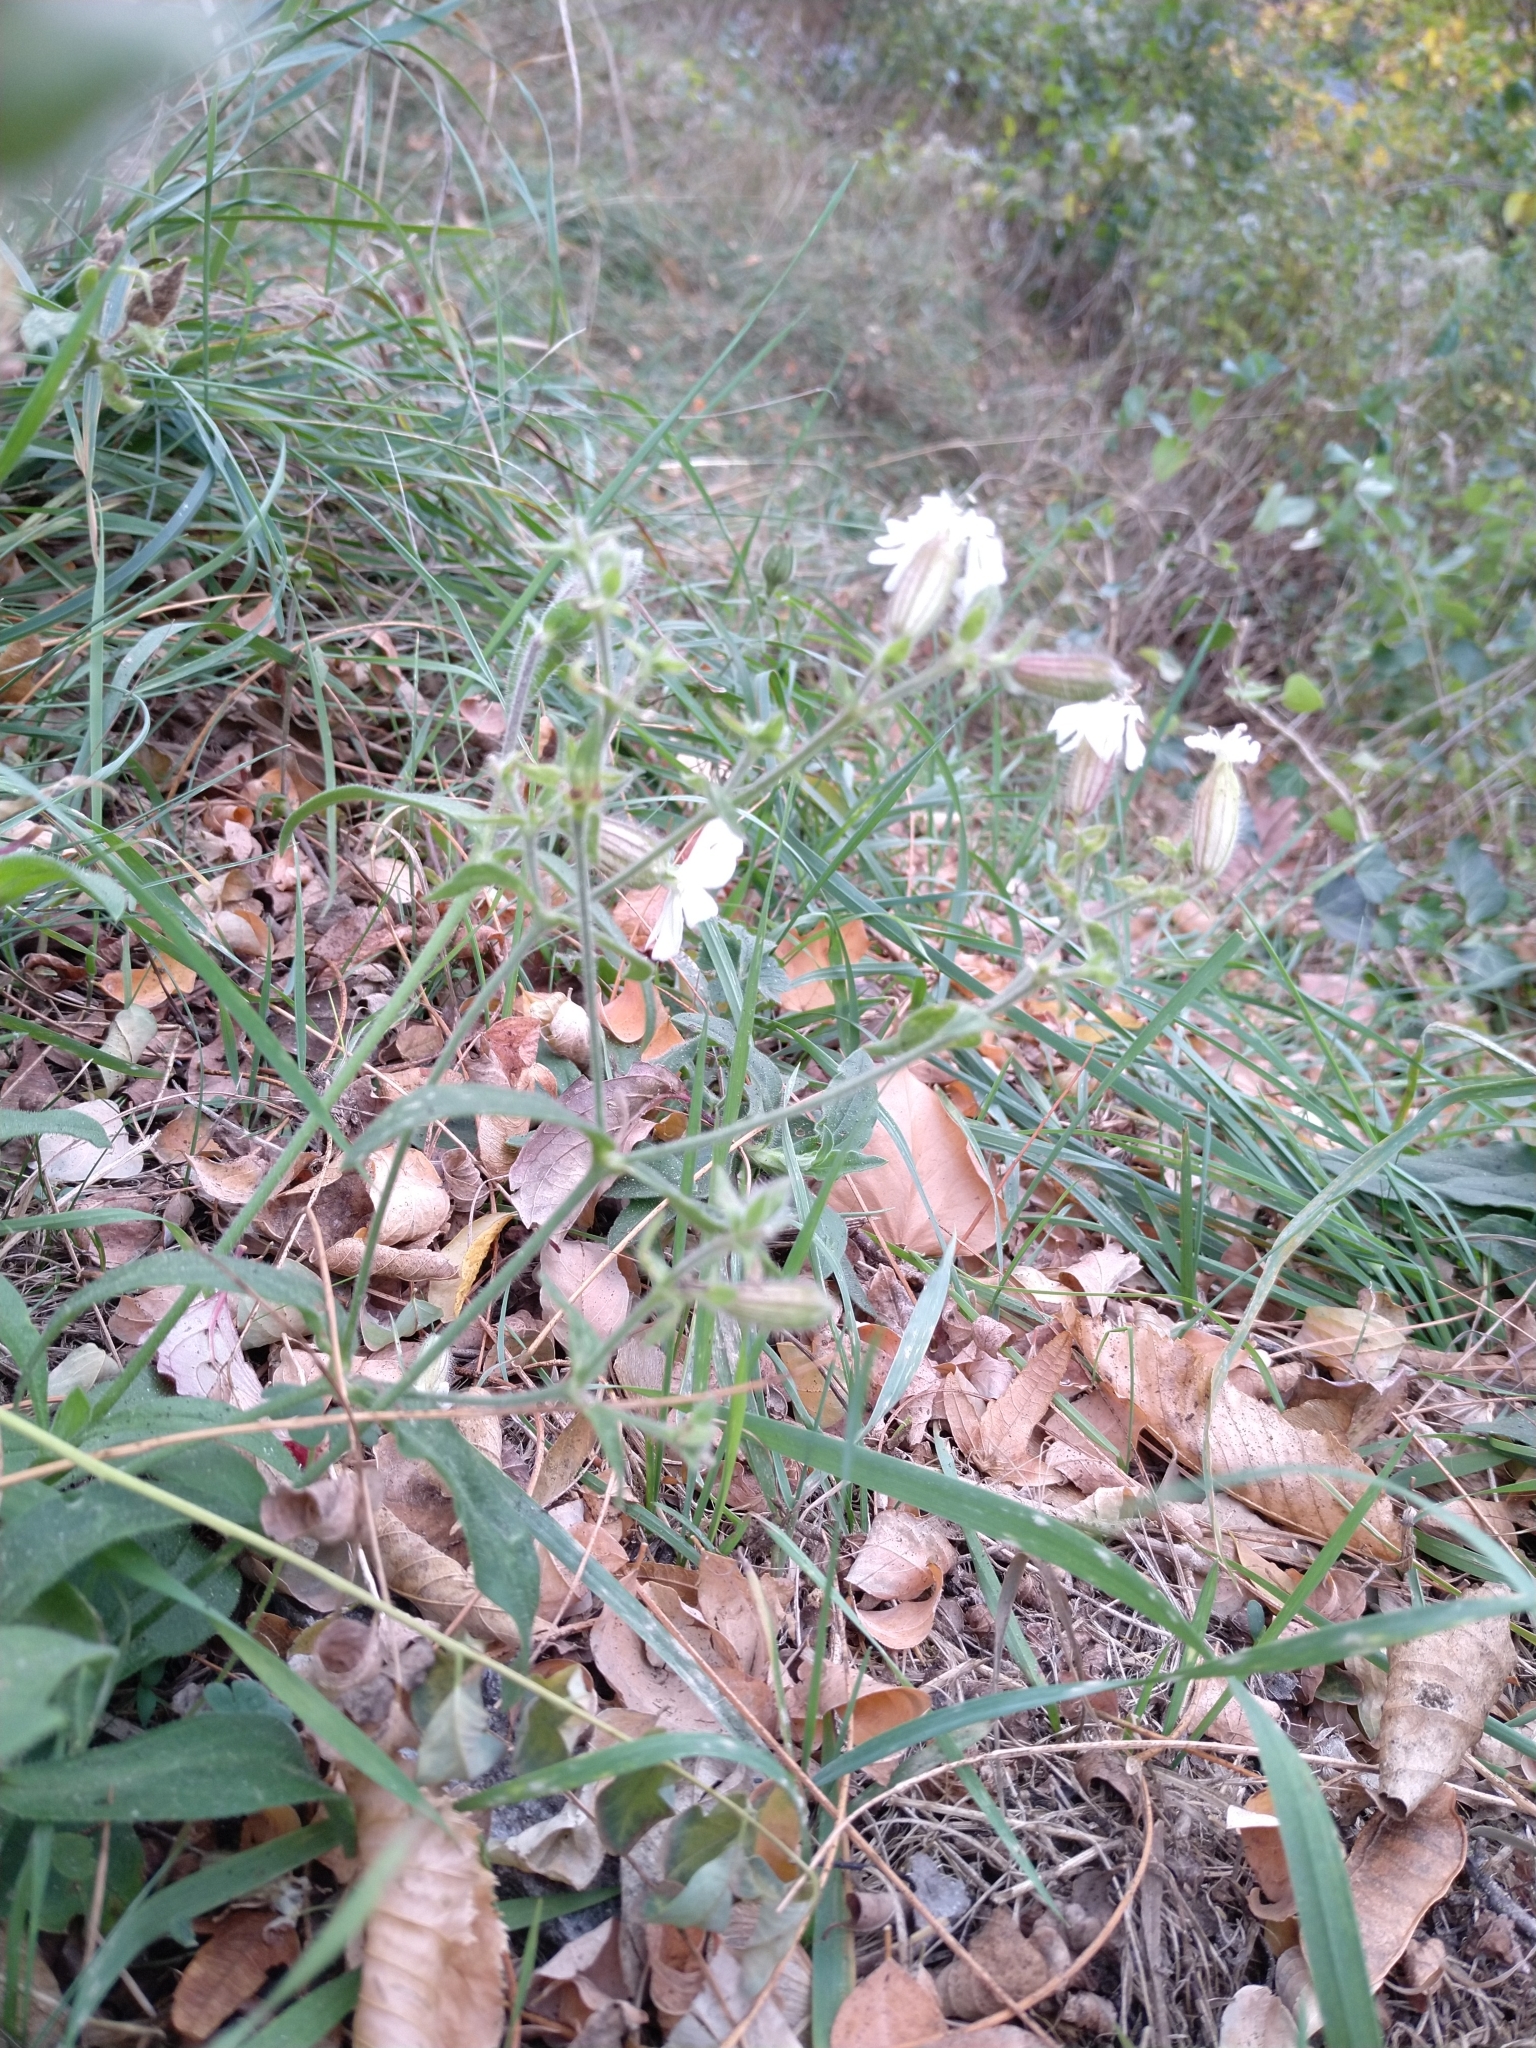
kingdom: Plantae
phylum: Tracheophyta
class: Magnoliopsida
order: Caryophyllales
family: Caryophyllaceae
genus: Silene
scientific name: Silene latifolia
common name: White campion
